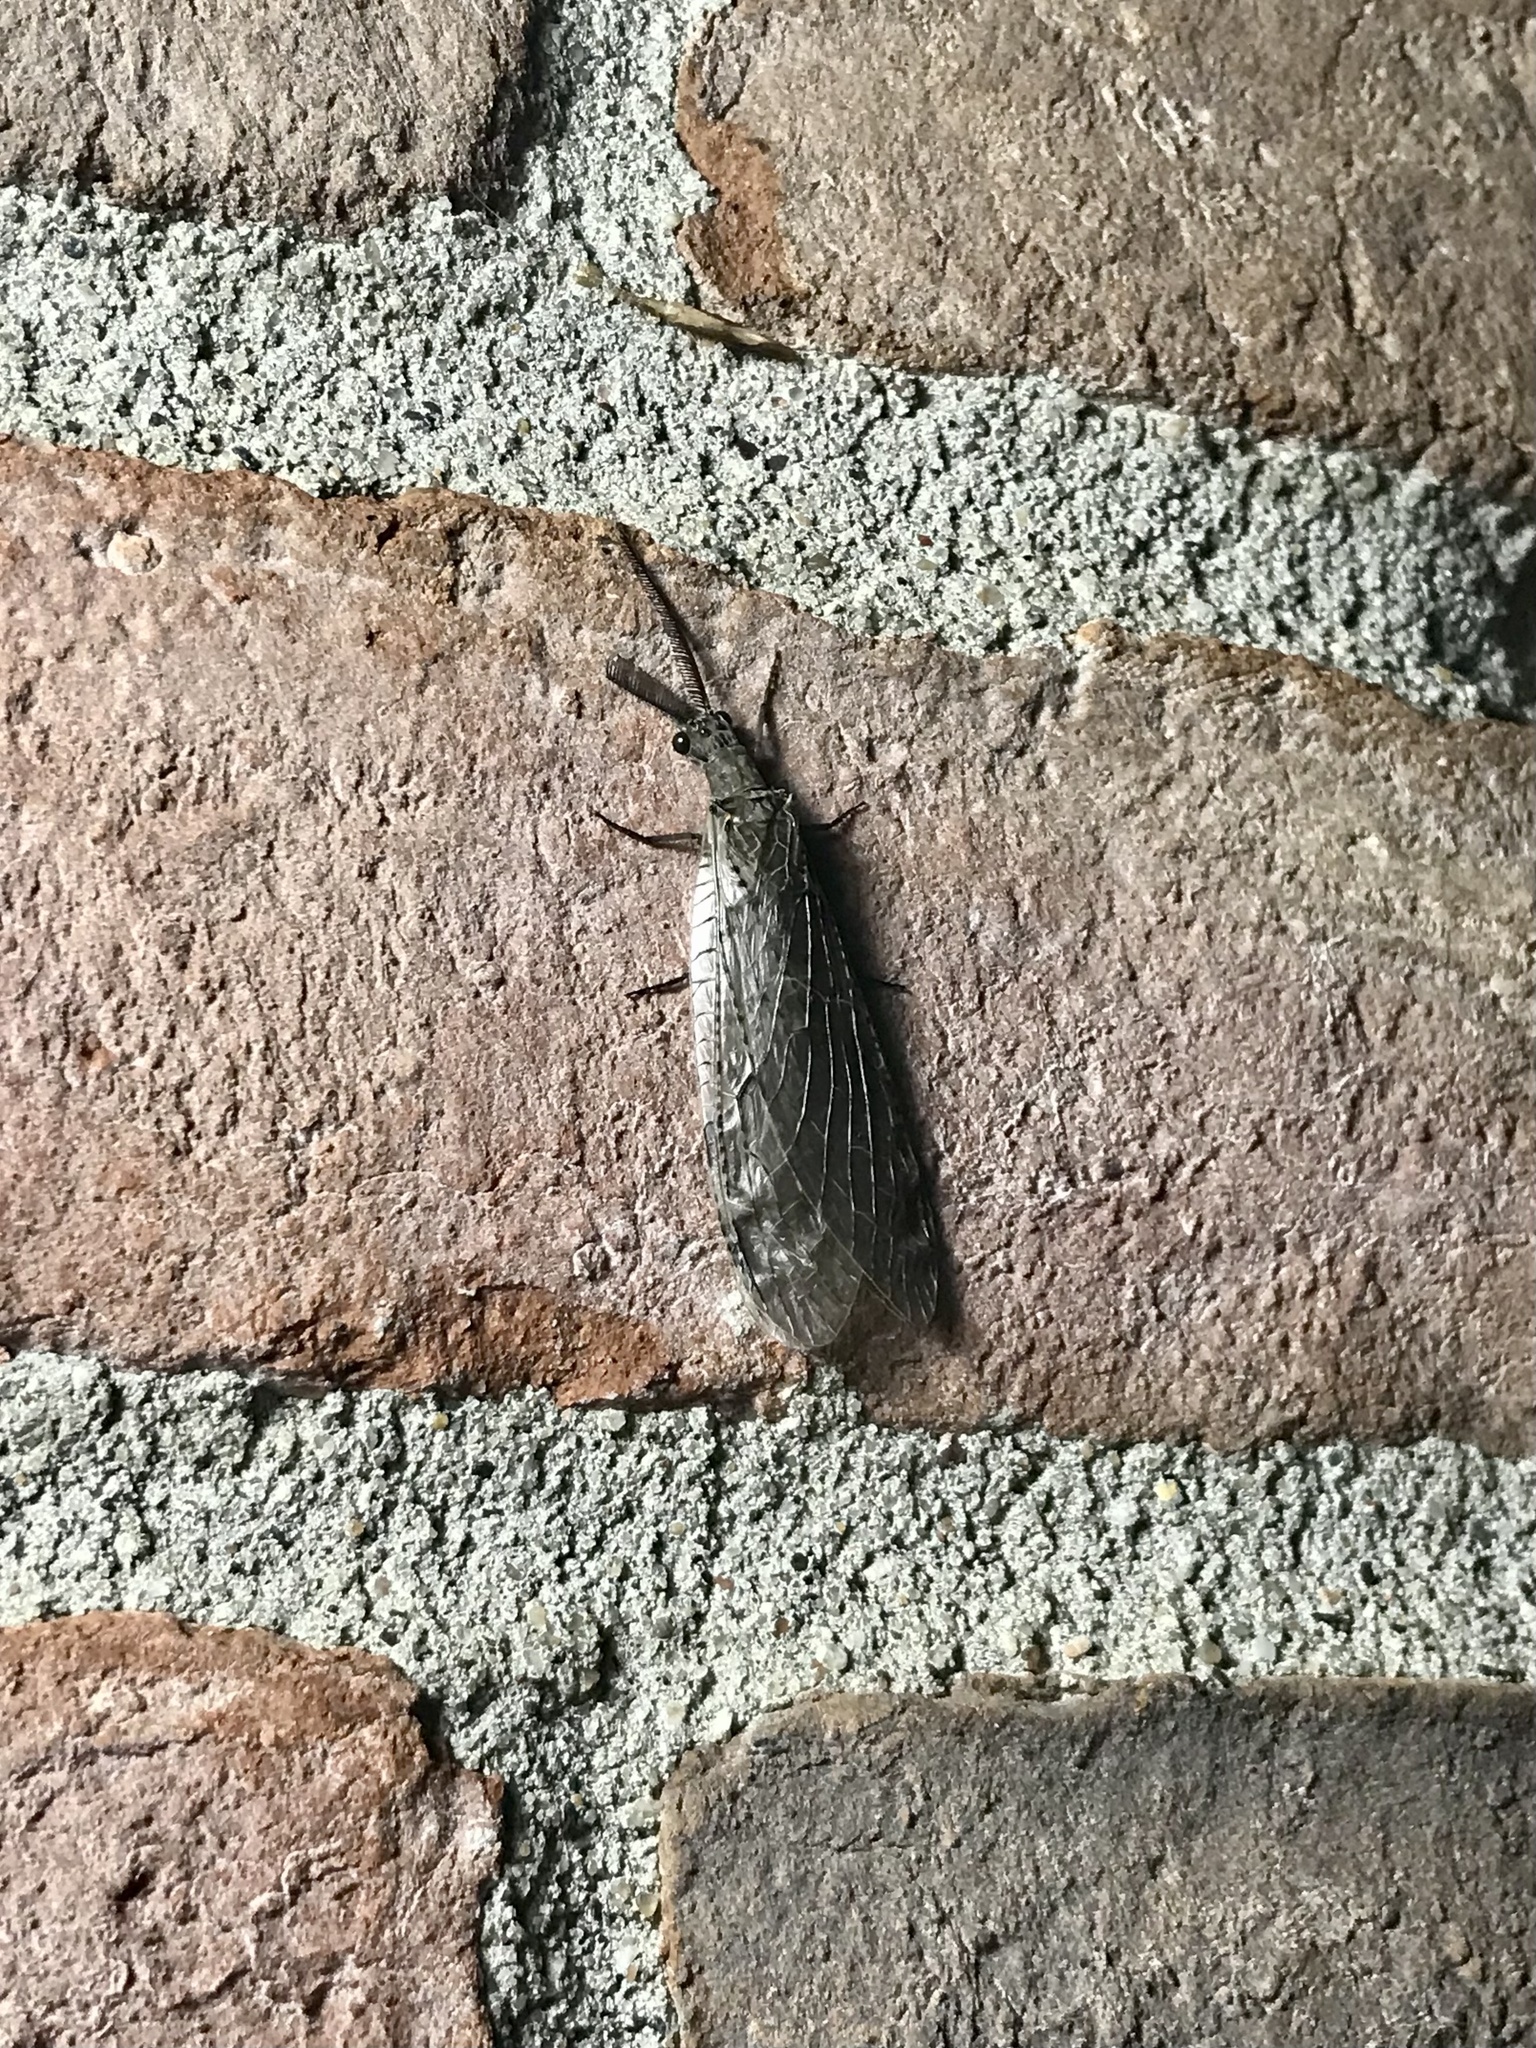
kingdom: Animalia
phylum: Arthropoda
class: Insecta
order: Megaloptera
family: Corydalidae
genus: Chauliodes
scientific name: Chauliodes rastricornis
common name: Spring fishfly
